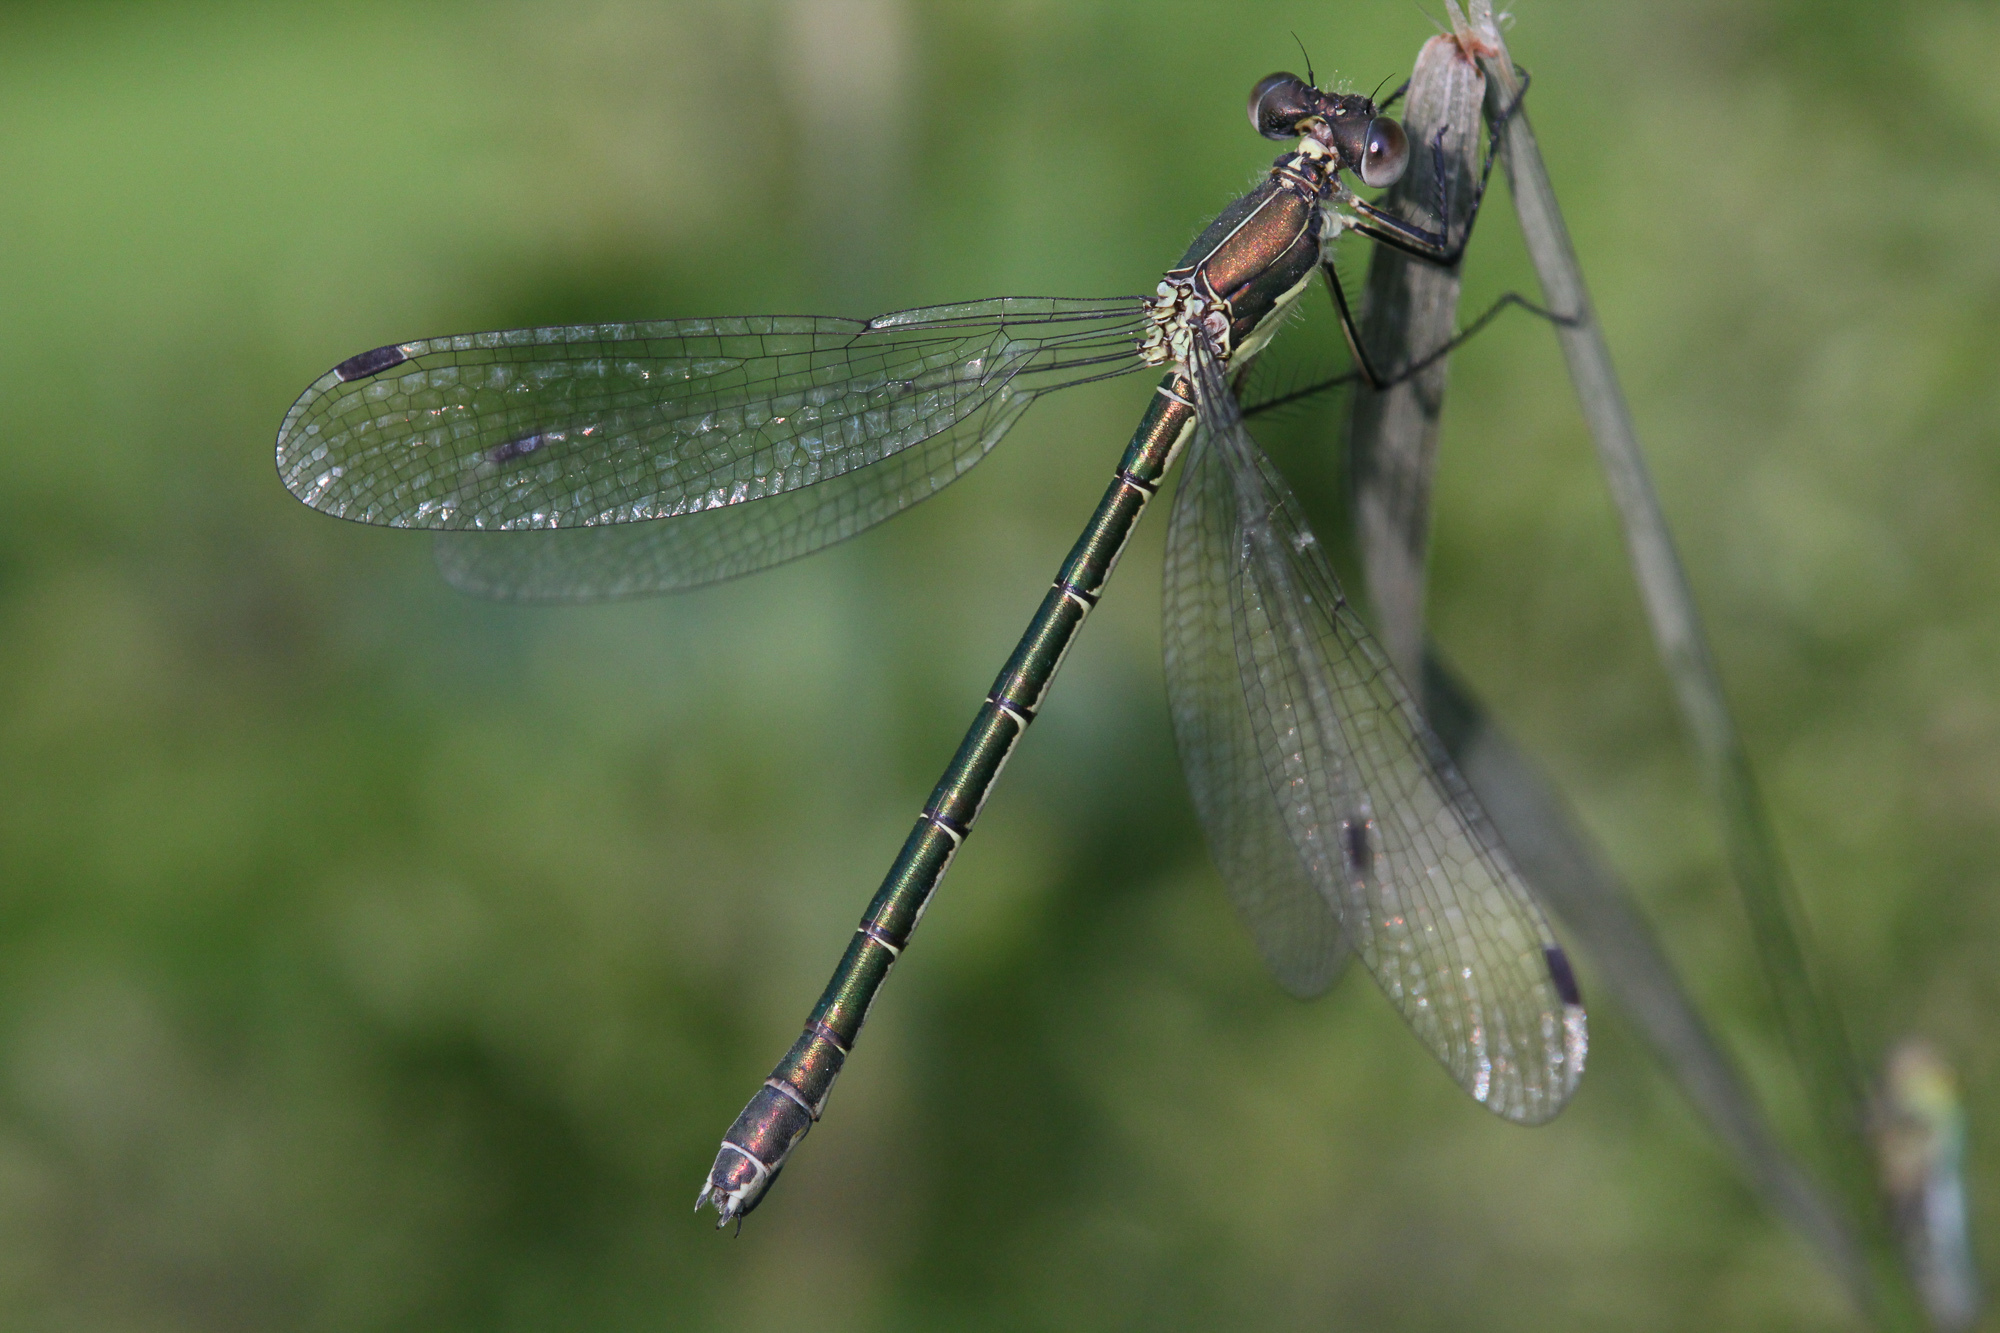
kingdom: Animalia
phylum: Arthropoda
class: Insecta
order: Odonata
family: Lestidae
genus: Lestes
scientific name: Lestes dryas
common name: Scarce emerald damselfly
